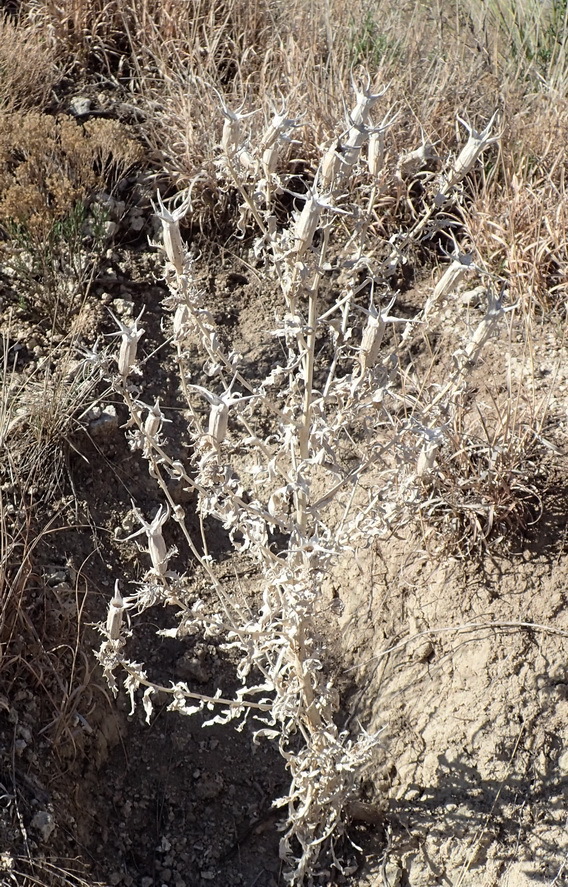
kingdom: Plantae
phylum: Tracheophyta
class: Magnoliopsida
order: Cornales
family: Loasaceae
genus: Mentzelia
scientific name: Mentzelia nuda
